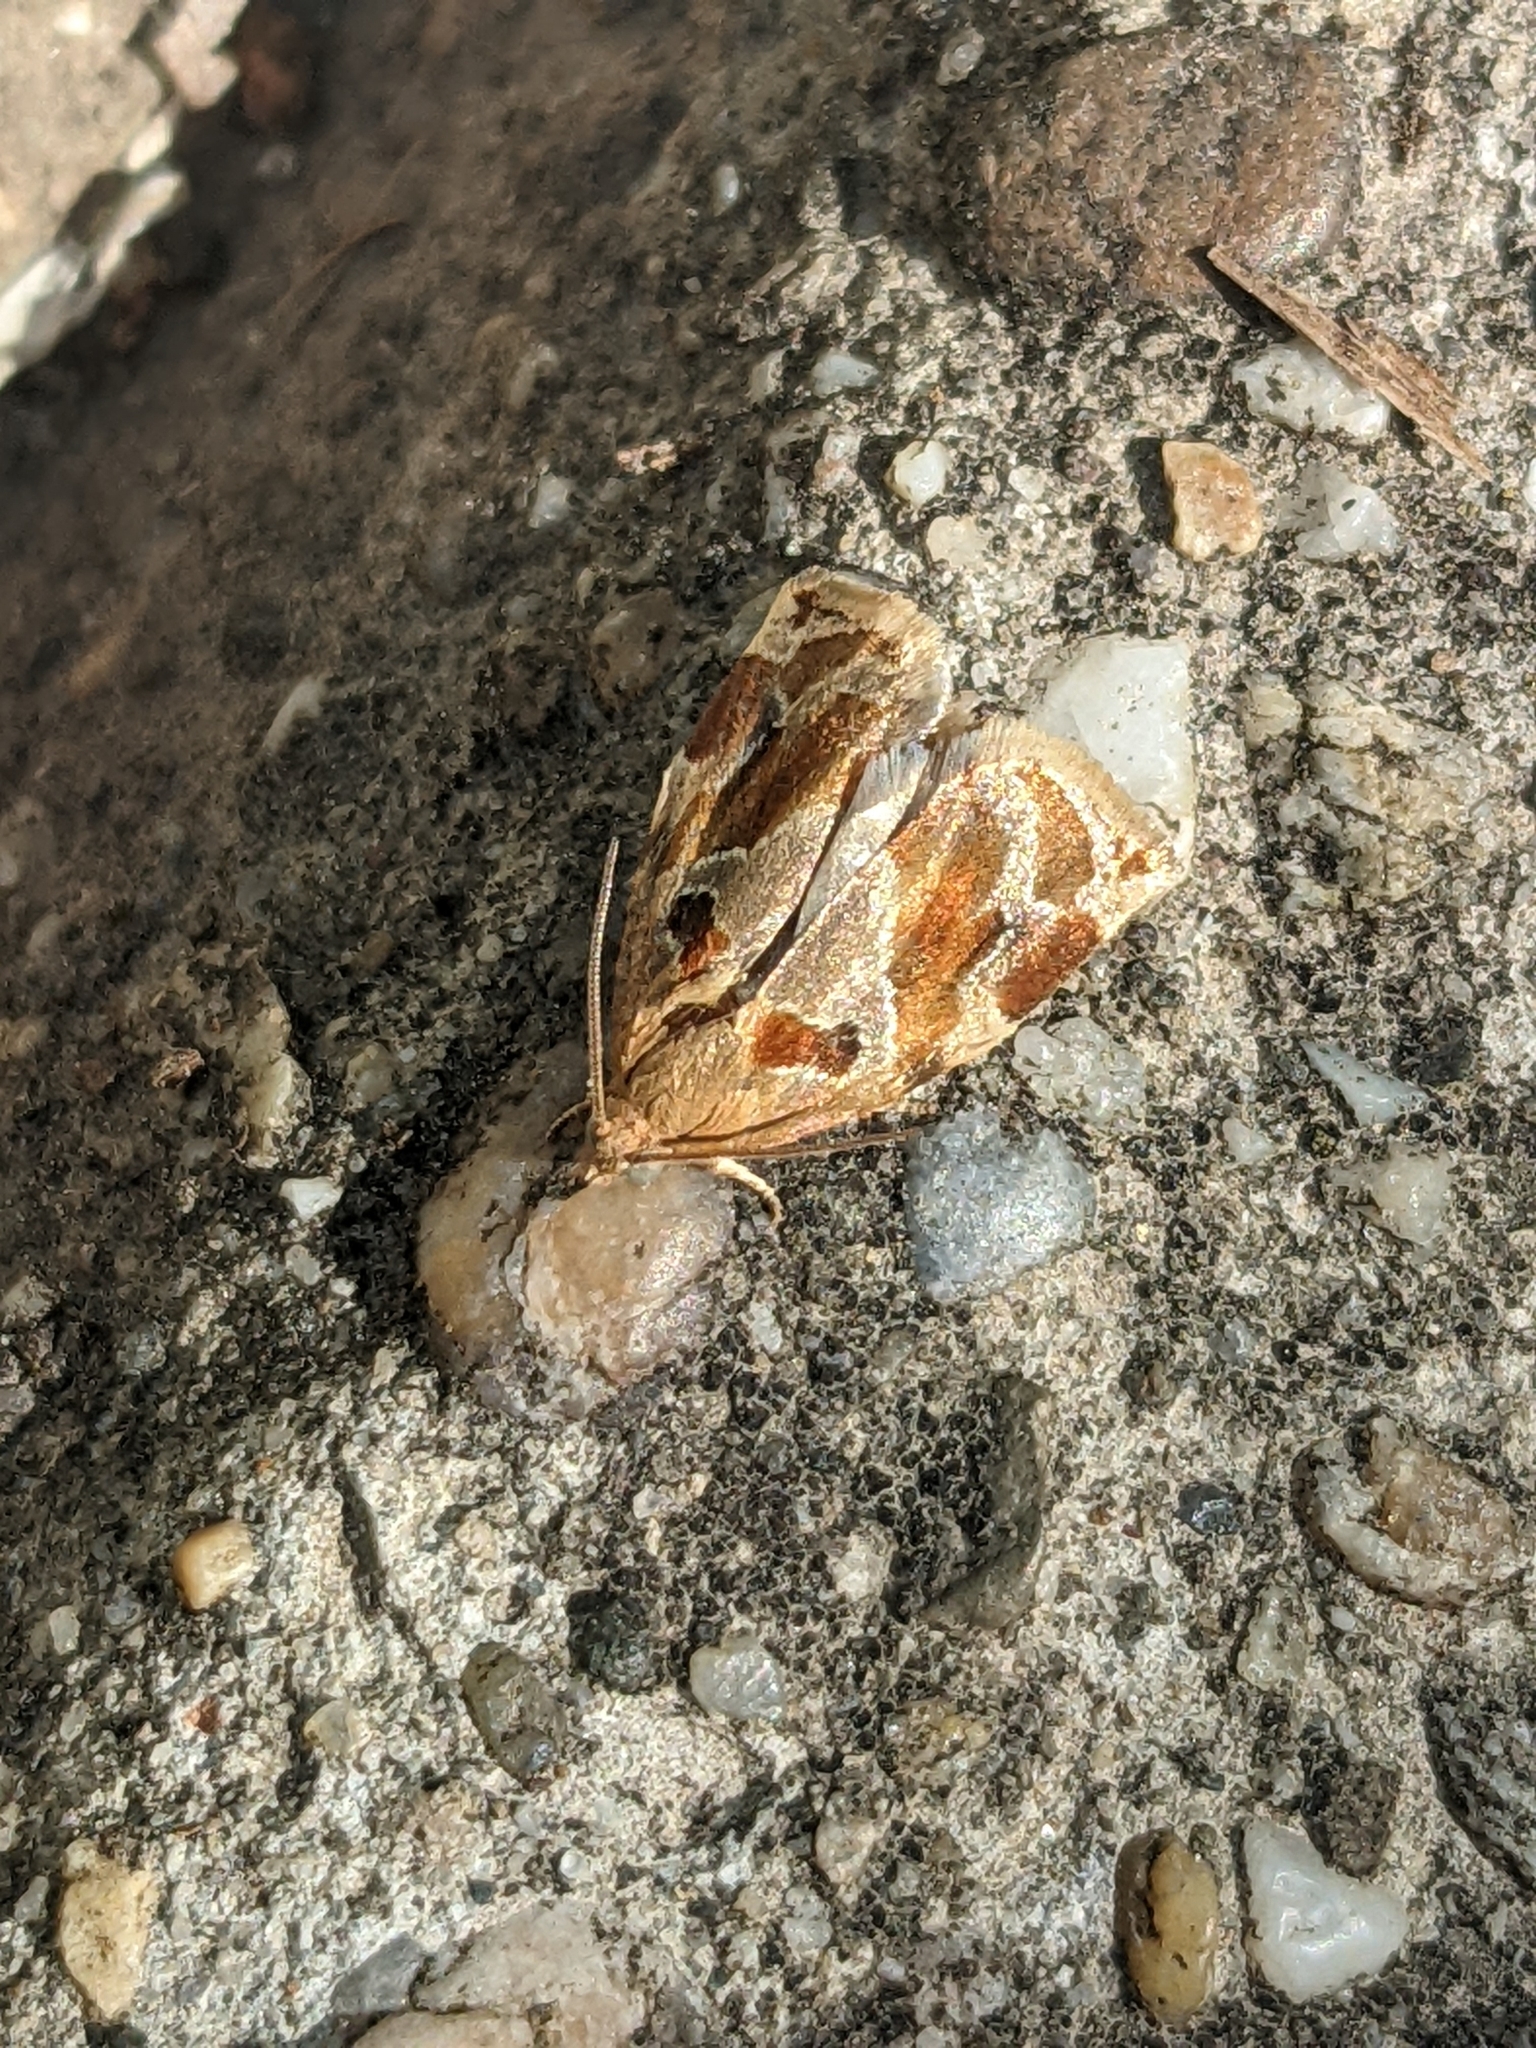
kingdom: Animalia
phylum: Arthropoda
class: Insecta
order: Lepidoptera
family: Tortricidae
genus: Archips
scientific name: Archips xylosteana
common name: Variegated golden tortrix
